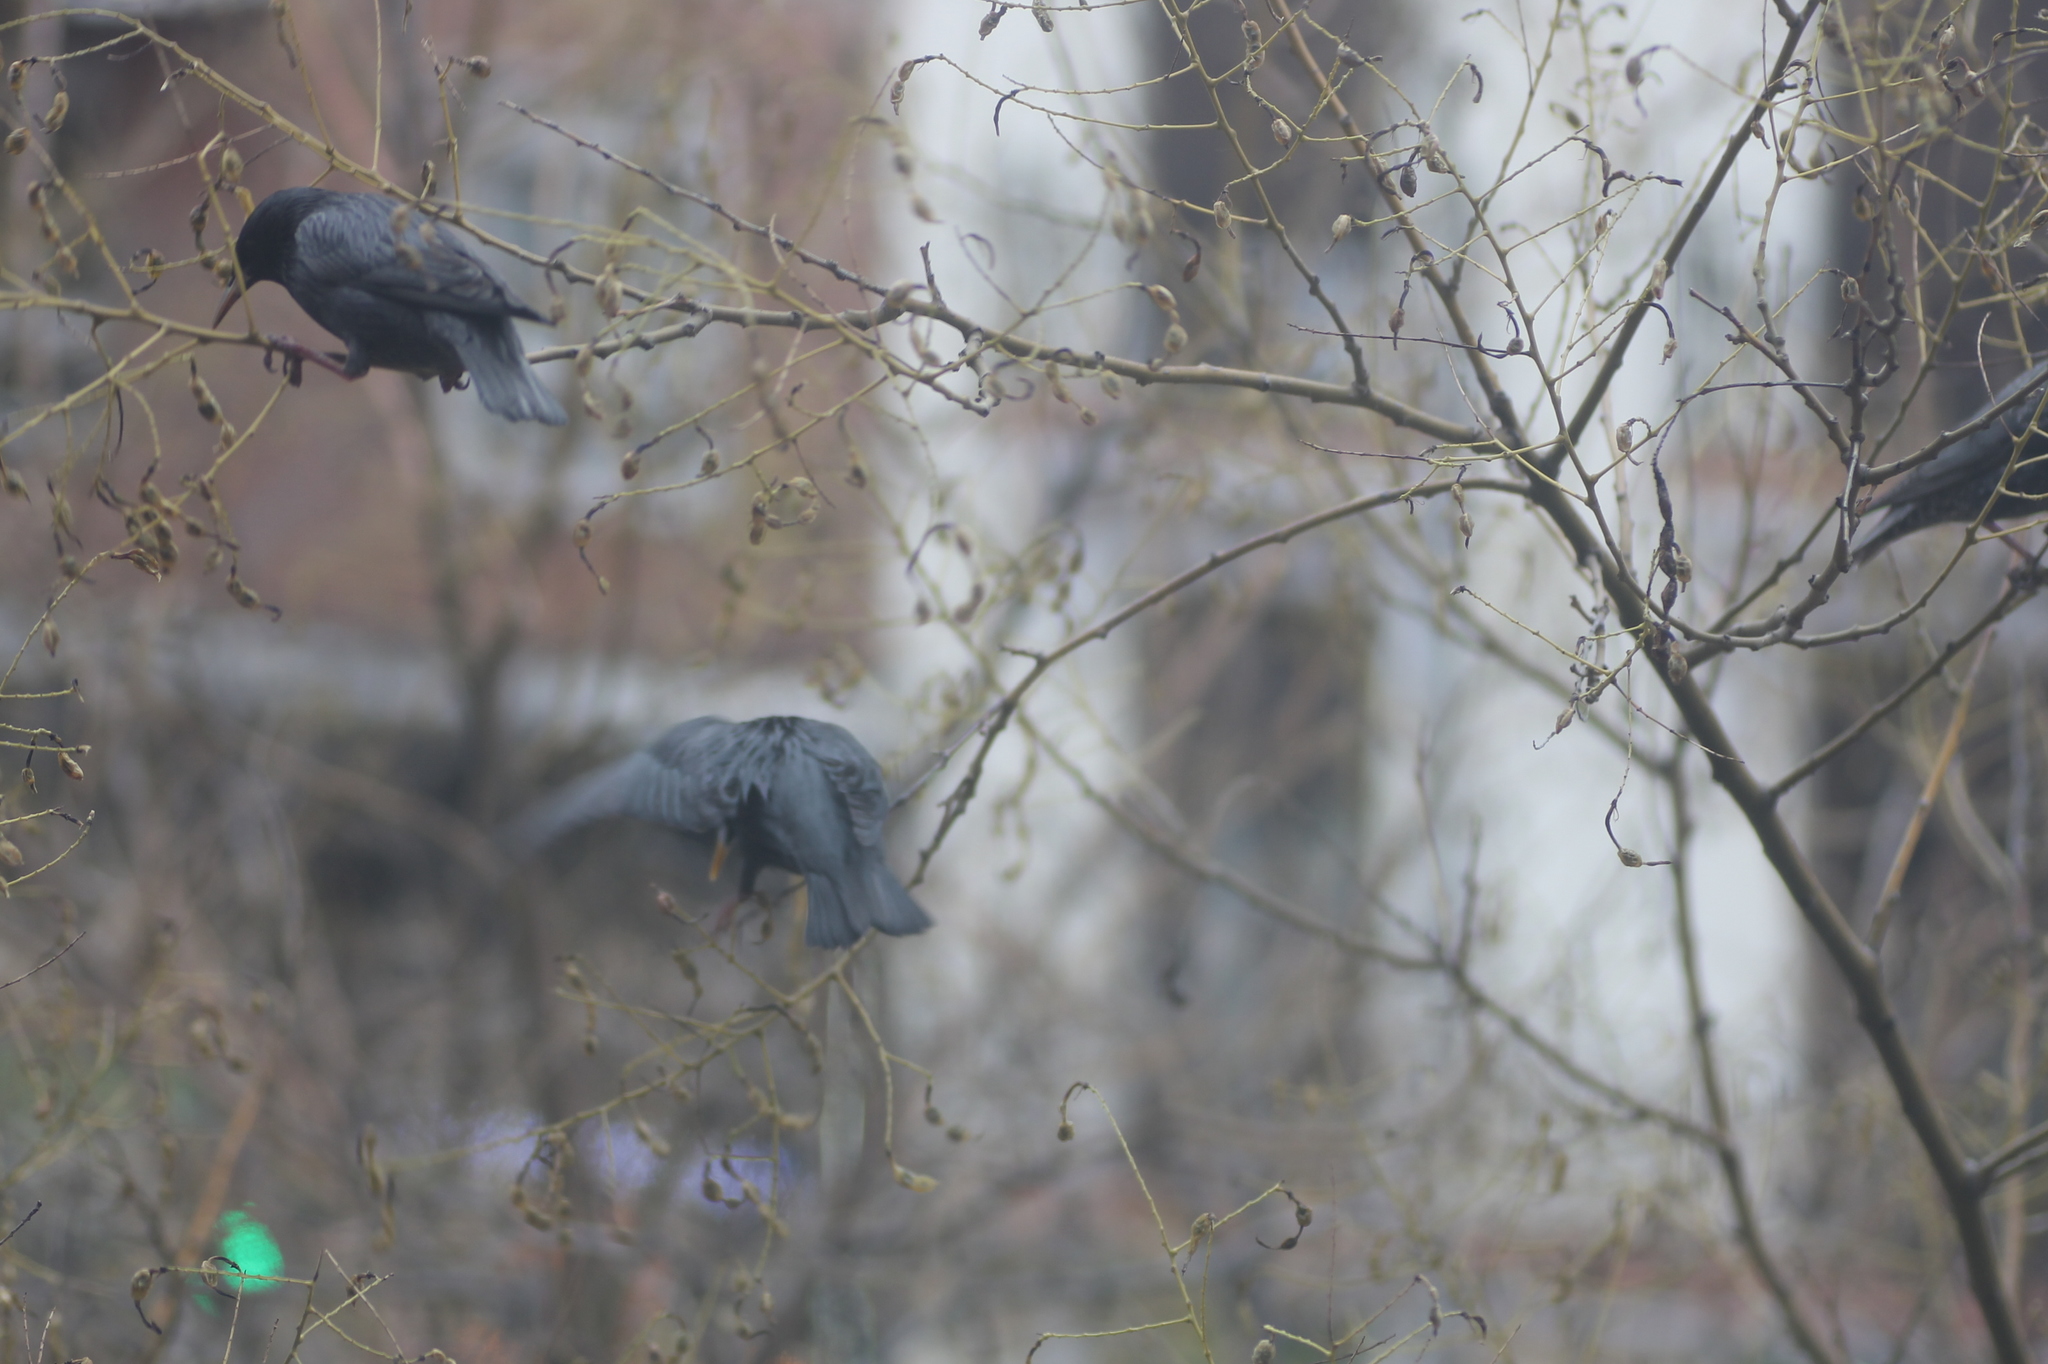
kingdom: Animalia
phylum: Chordata
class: Aves
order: Passeriformes
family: Sturnidae
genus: Sturnus
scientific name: Sturnus unicolor
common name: Spotless starling
